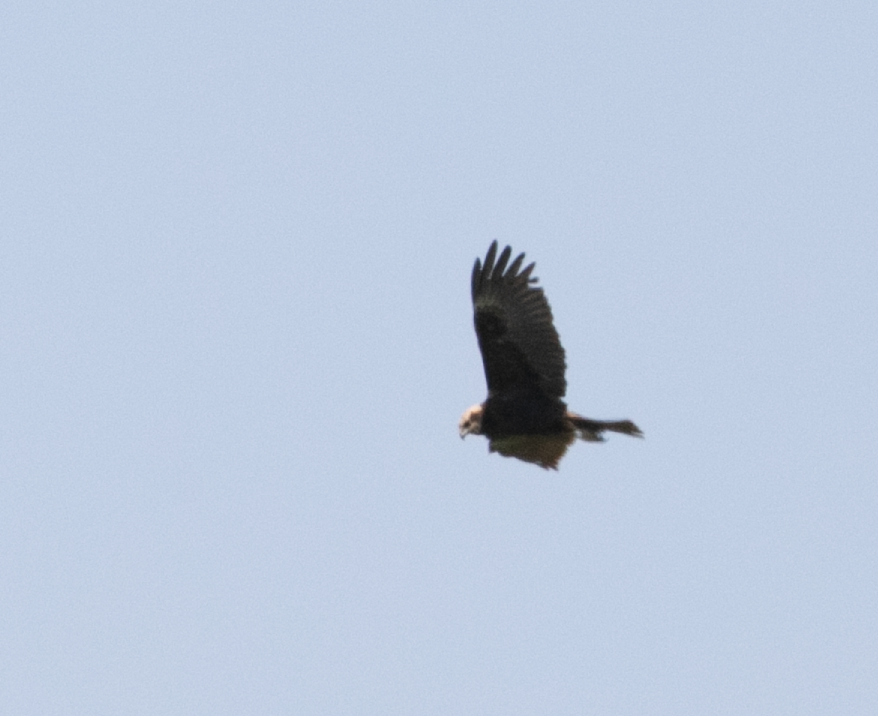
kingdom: Animalia
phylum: Chordata
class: Aves
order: Accipitriformes
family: Accipitridae
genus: Circus
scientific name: Circus aeruginosus
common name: Western marsh harrier
